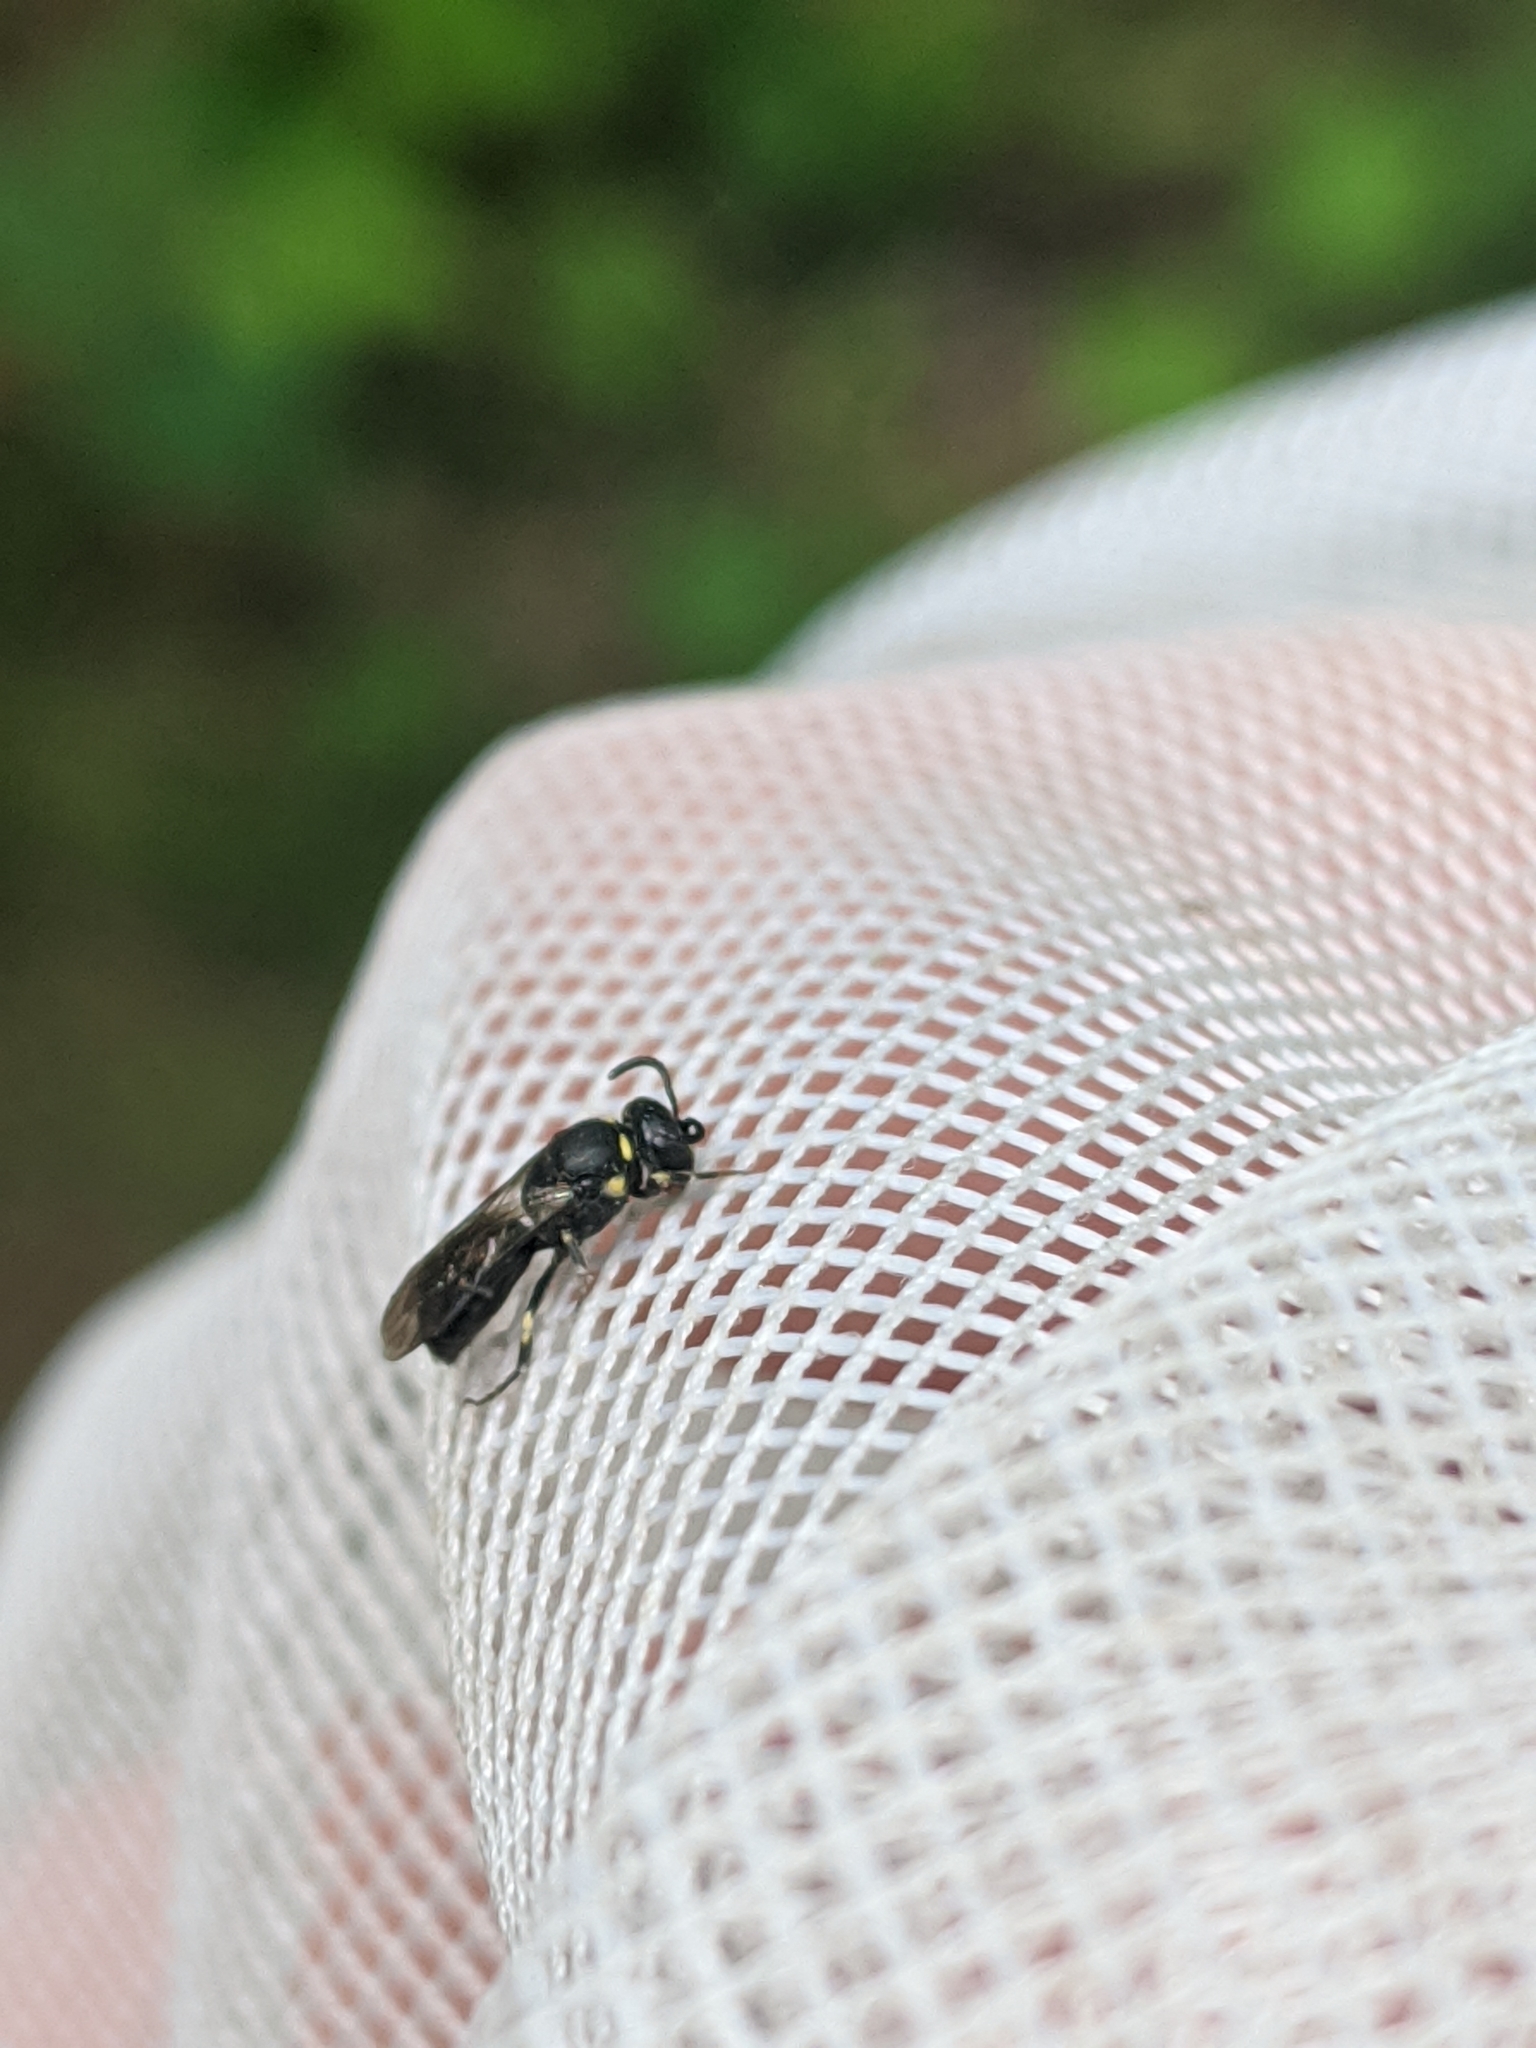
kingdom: Animalia
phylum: Arthropoda
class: Insecta
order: Hymenoptera
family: Colletidae
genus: Hylaeus
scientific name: Hylaeus modestus
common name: Yellow-faced bee
